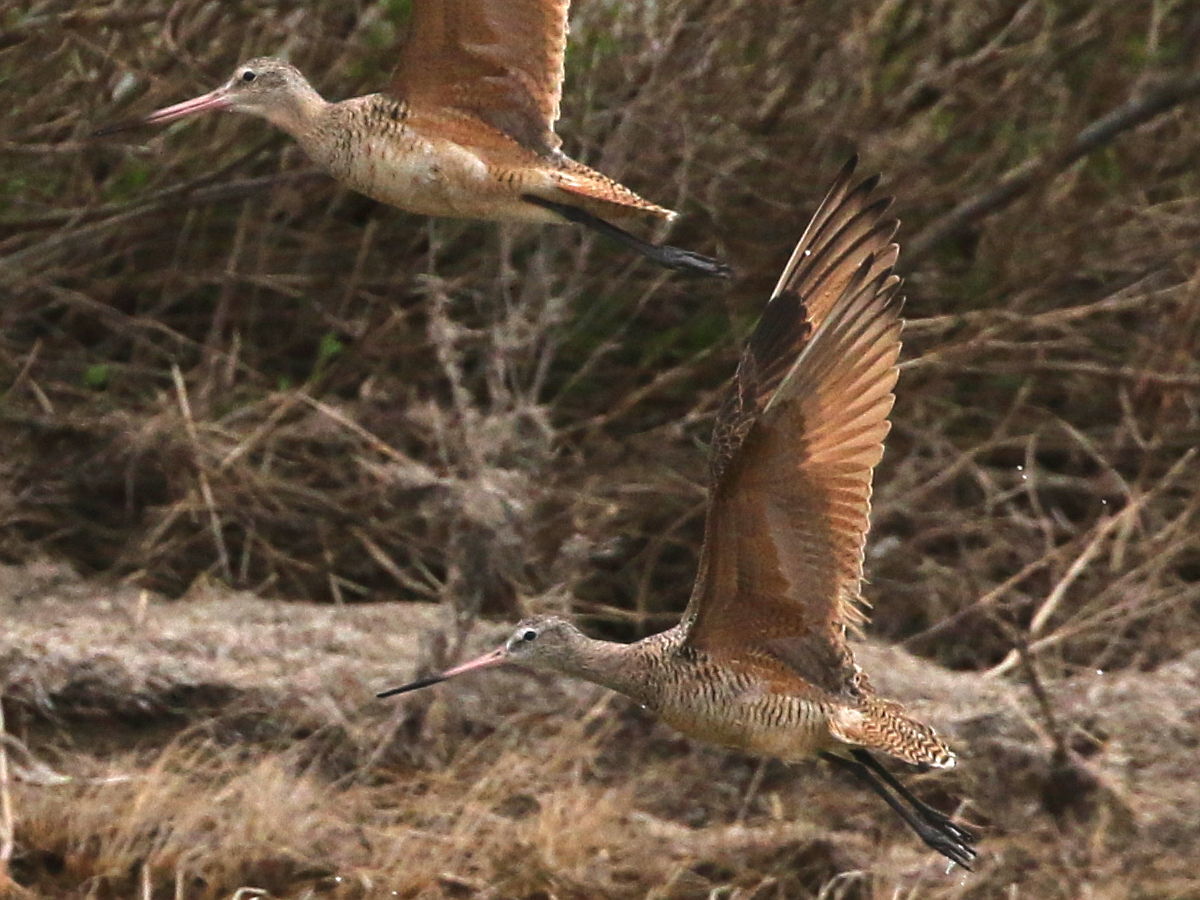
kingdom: Animalia
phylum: Chordata
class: Aves
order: Charadriiformes
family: Scolopacidae
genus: Limosa
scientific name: Limosa fedoa
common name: Marbled godwit
